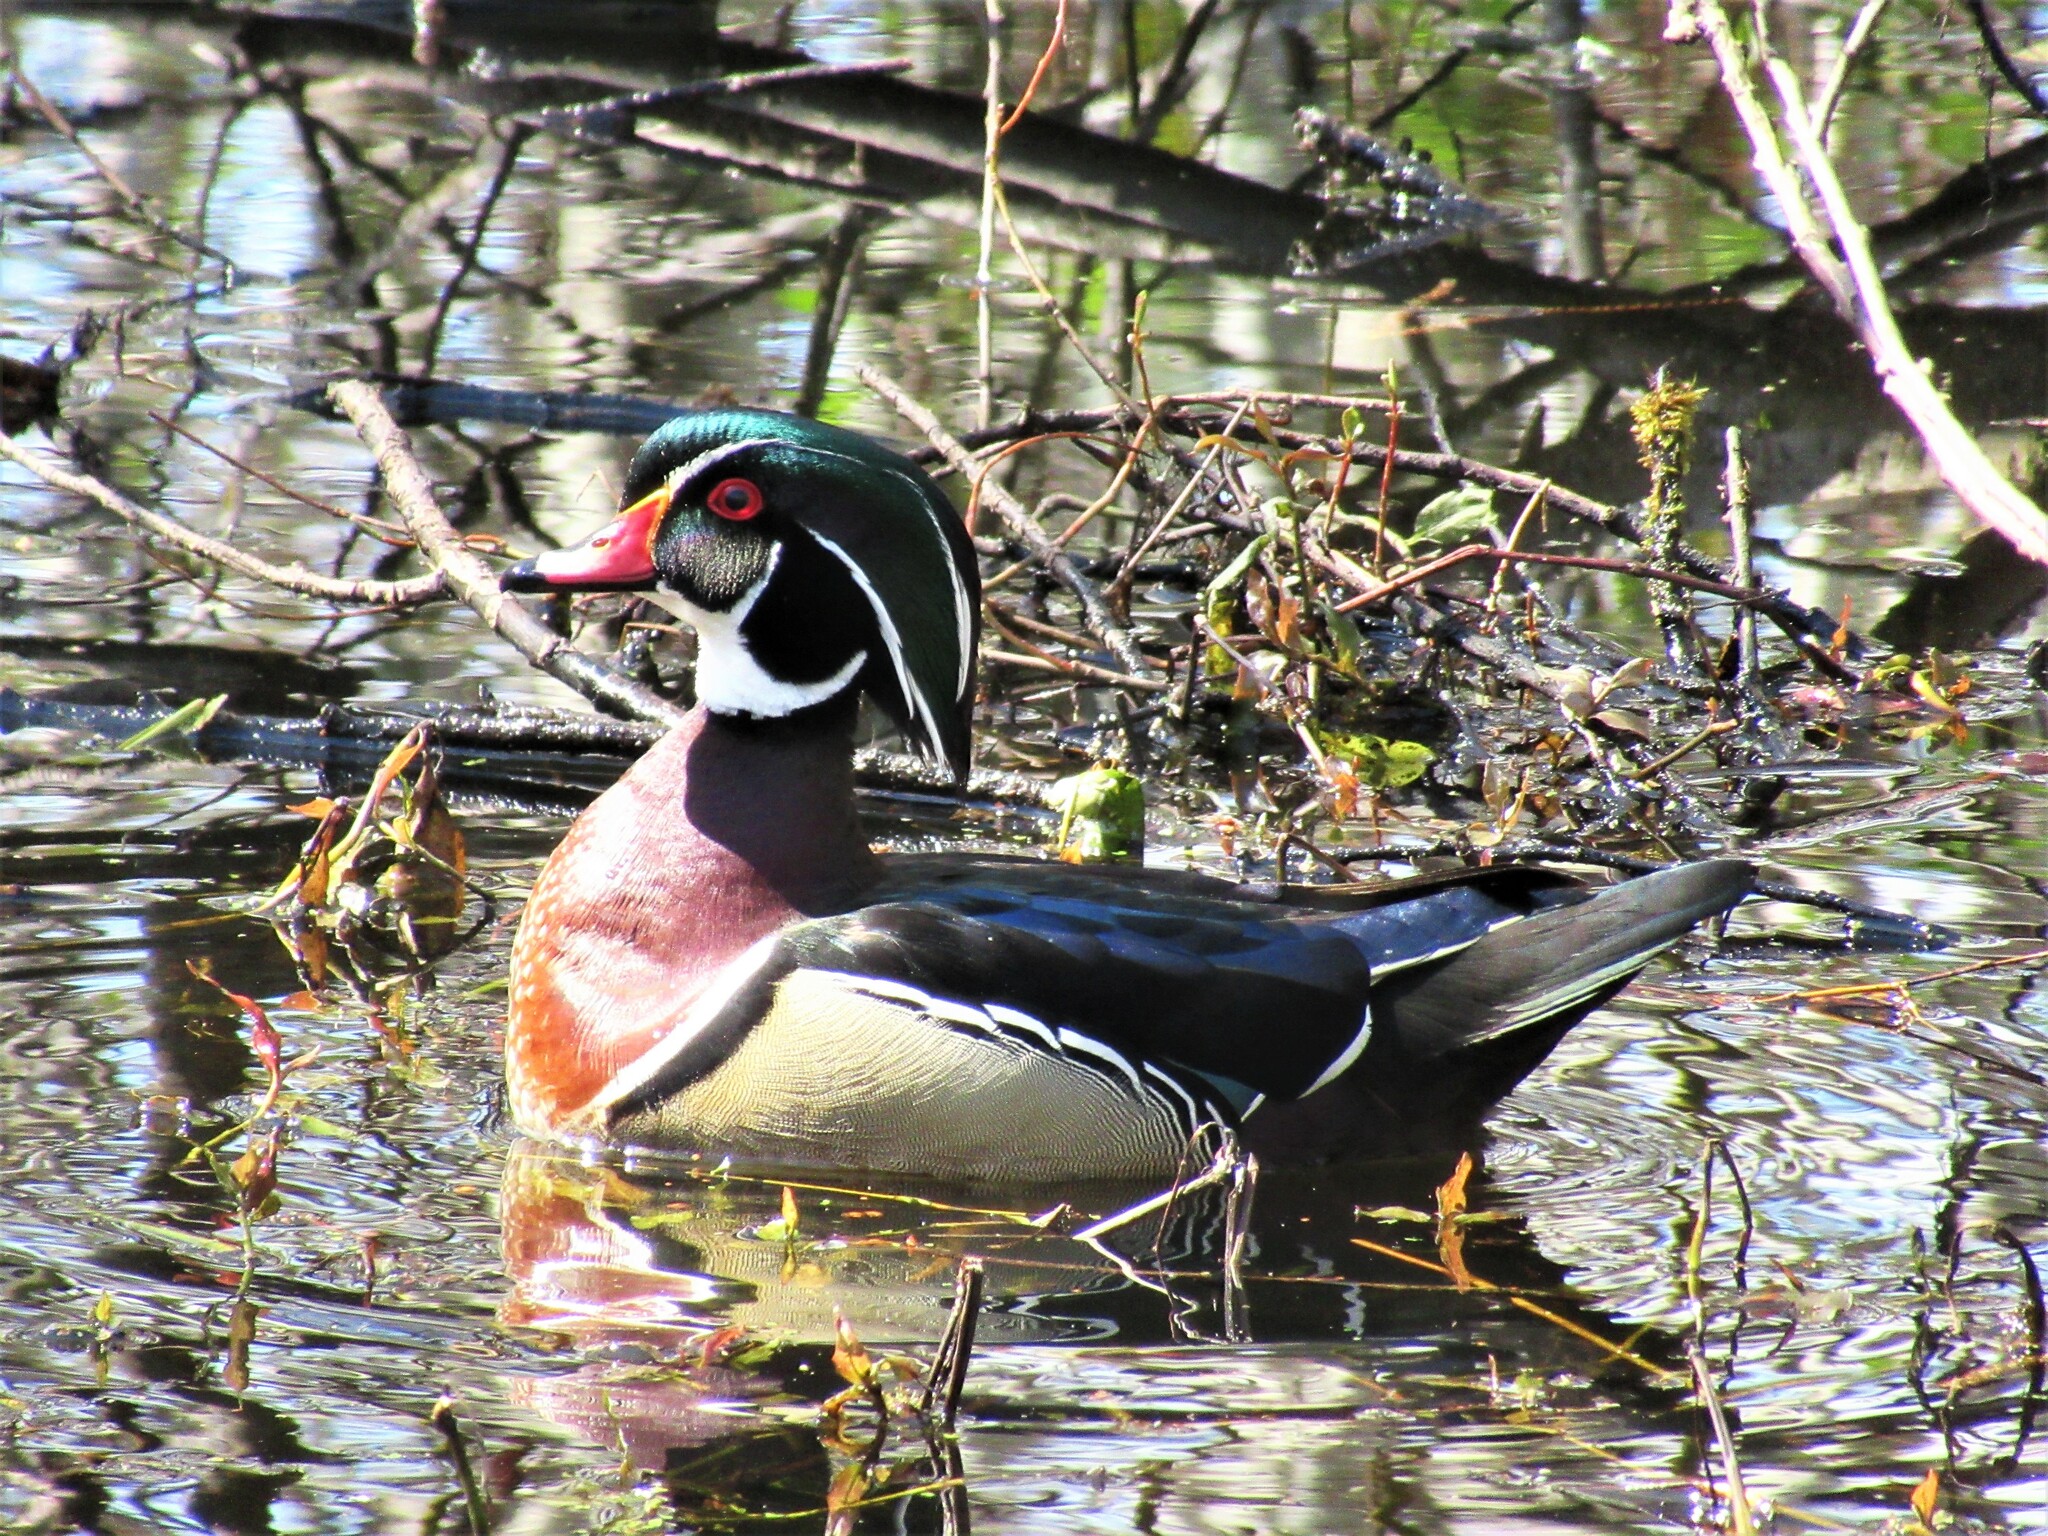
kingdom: Animalia
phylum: Chordata
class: Aves
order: Anseriformes
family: Anatidae
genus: Aix
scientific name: Aix sponsa
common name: Wood duck
